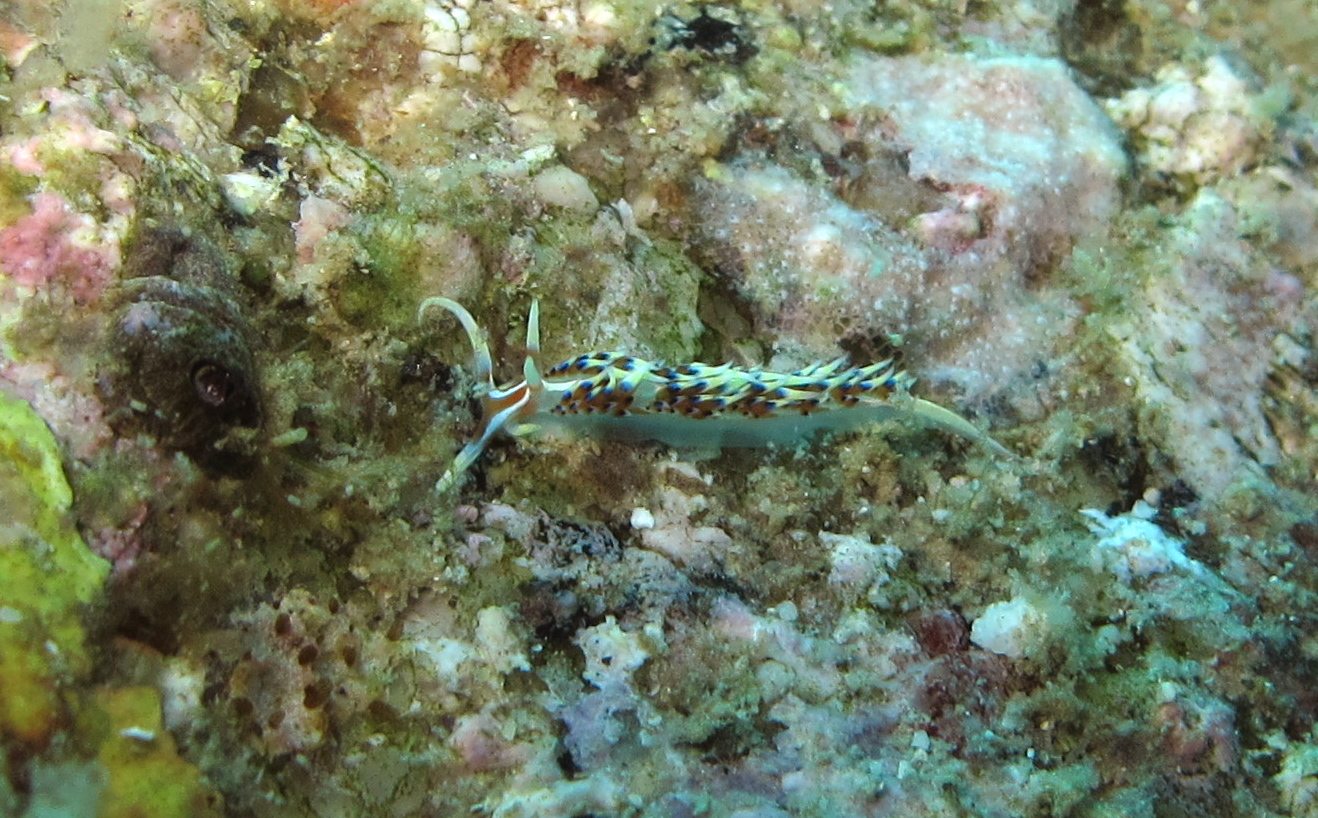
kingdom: Animalia
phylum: Mollusca
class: Gastropoda
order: Nudibranchia
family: Facelinidae
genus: Caloria
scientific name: Caloria indica
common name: Sea slug
